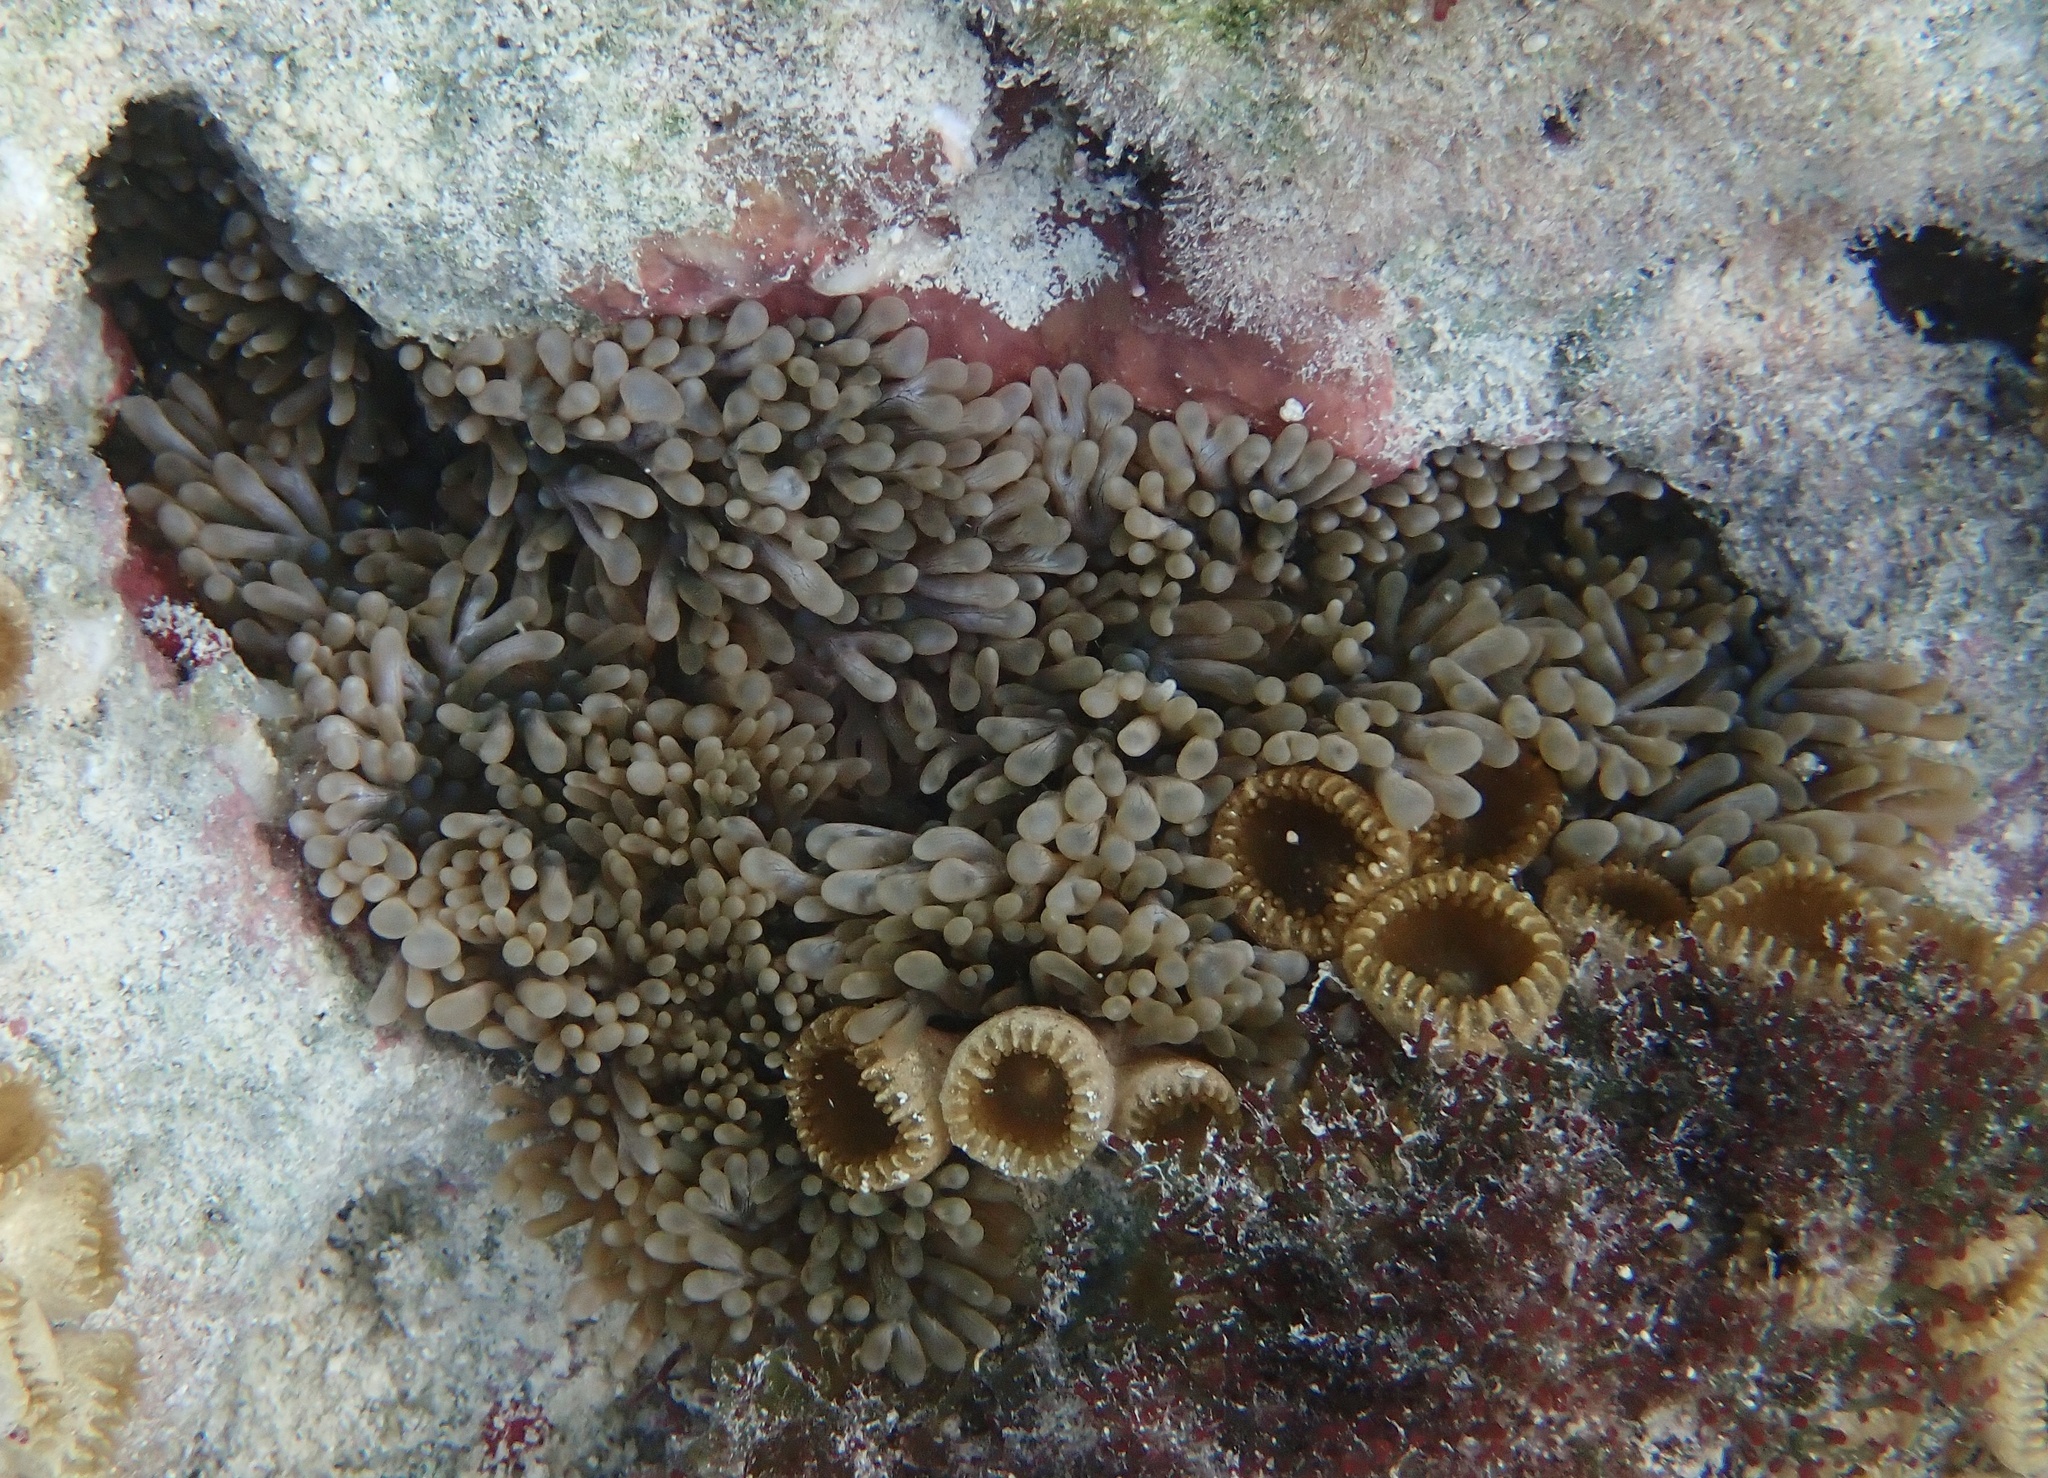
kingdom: Animalia
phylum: Cnidaria
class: Anthozoa
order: Actiniaria
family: Aliciidae
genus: Lebrunia
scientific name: Lebrunia neglecta
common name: Branching anemone
